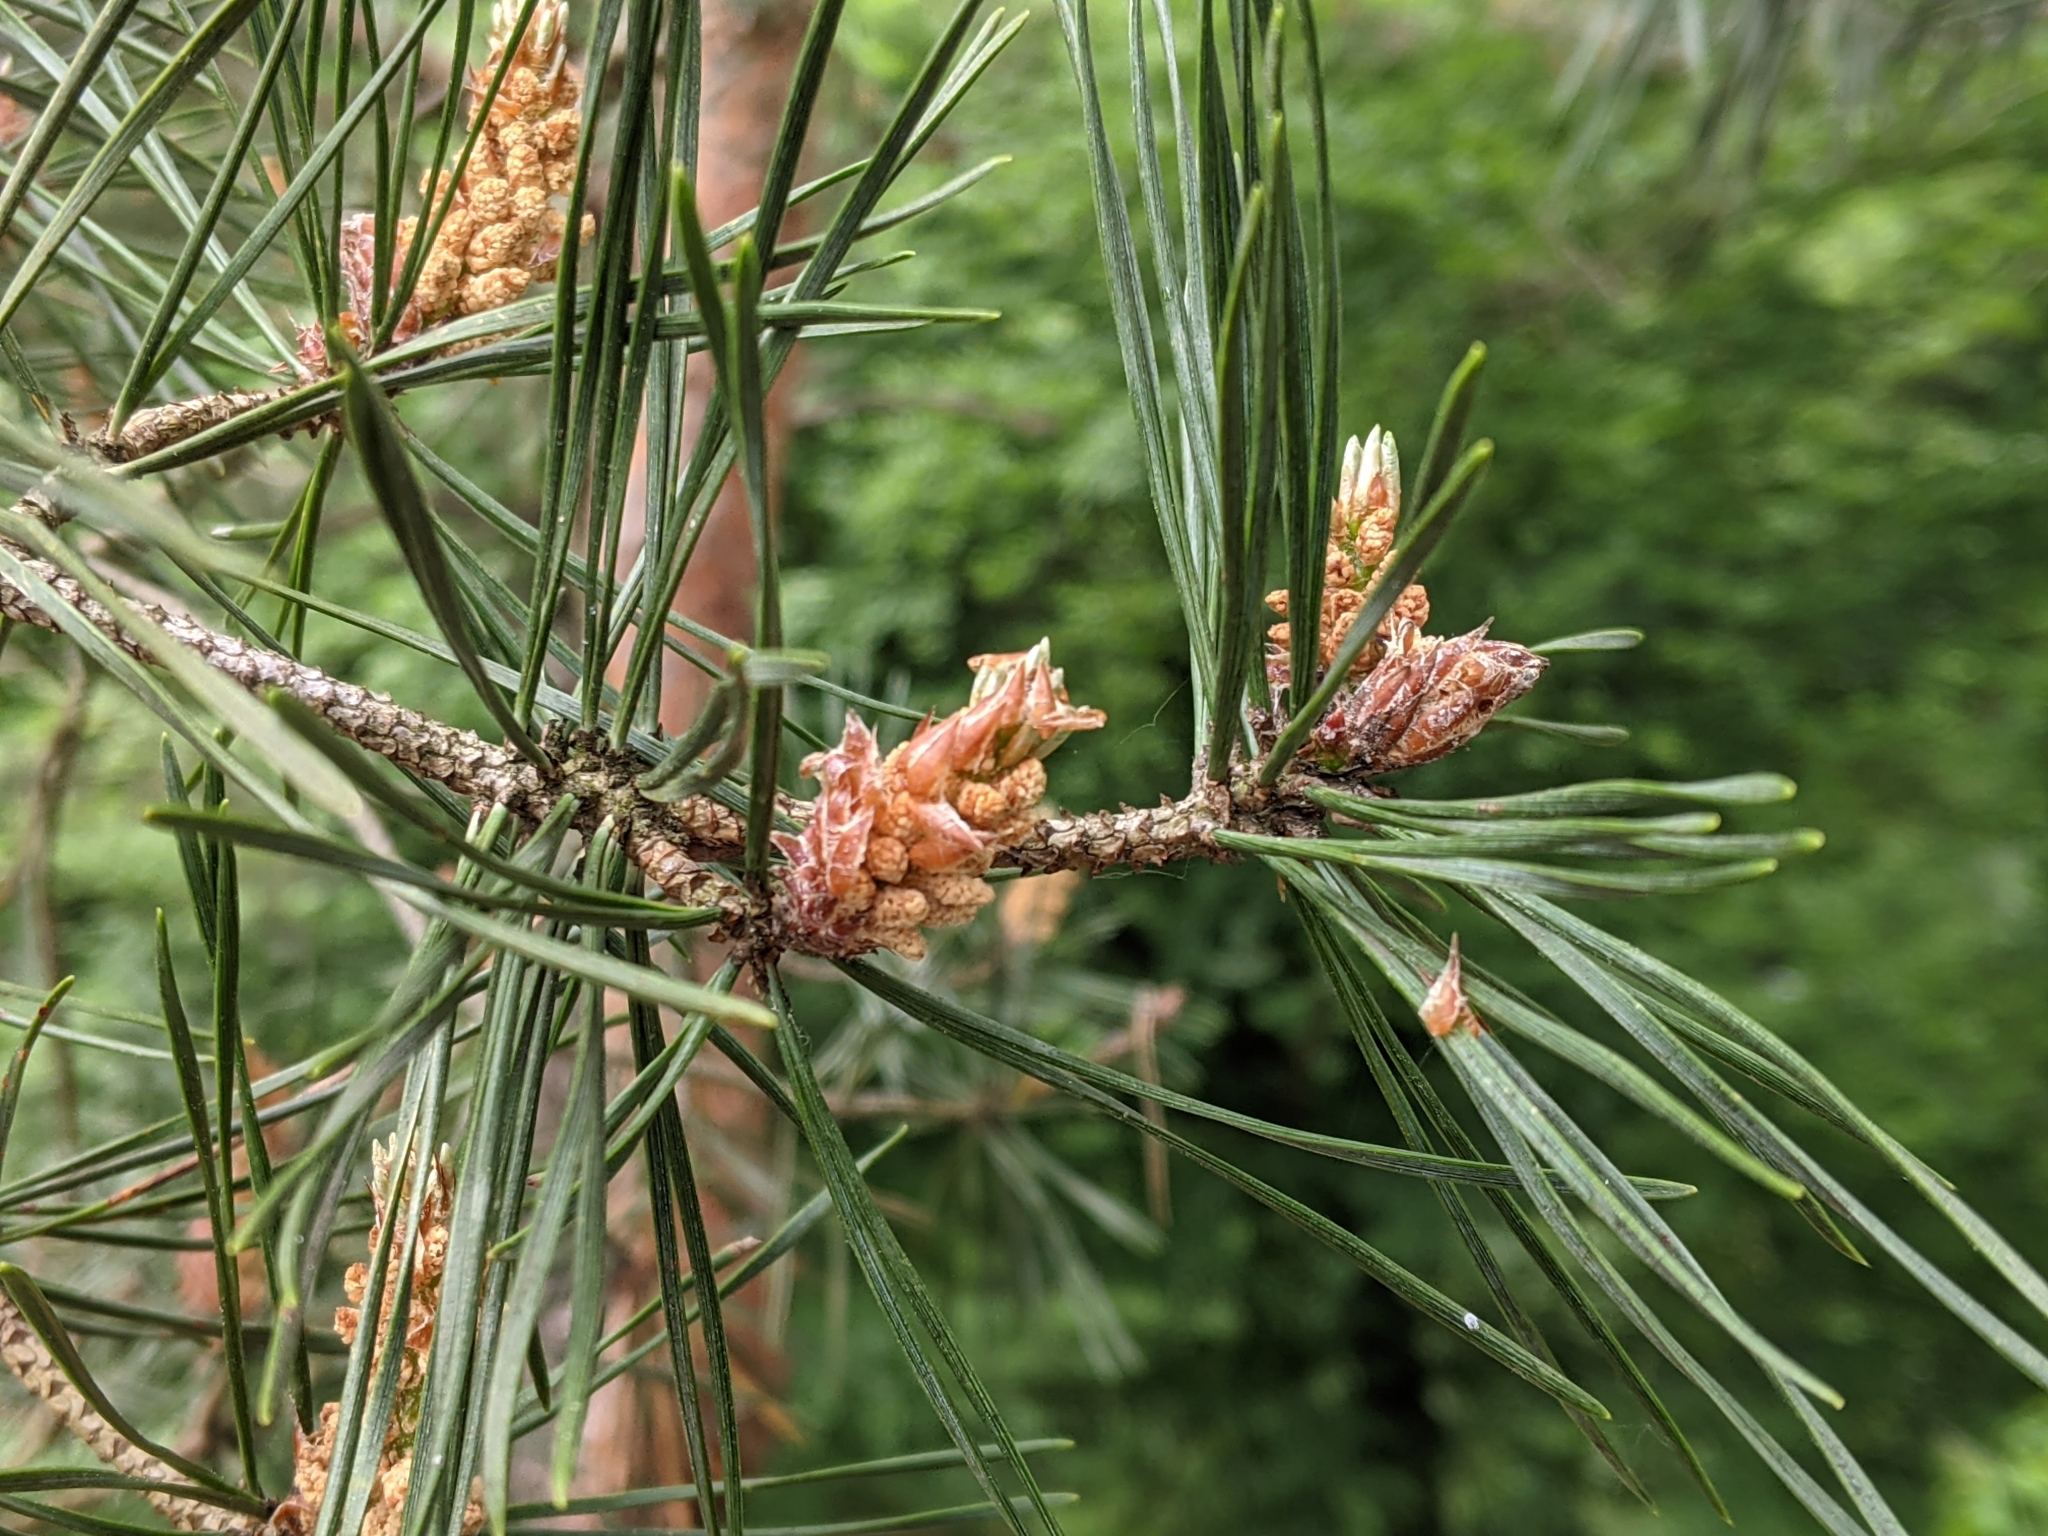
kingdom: Plantae
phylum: Tracheophyta
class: Pinopsida
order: Pinales
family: Pinaceae
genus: Pinus
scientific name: Pinus sylvestris
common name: Scots pine
